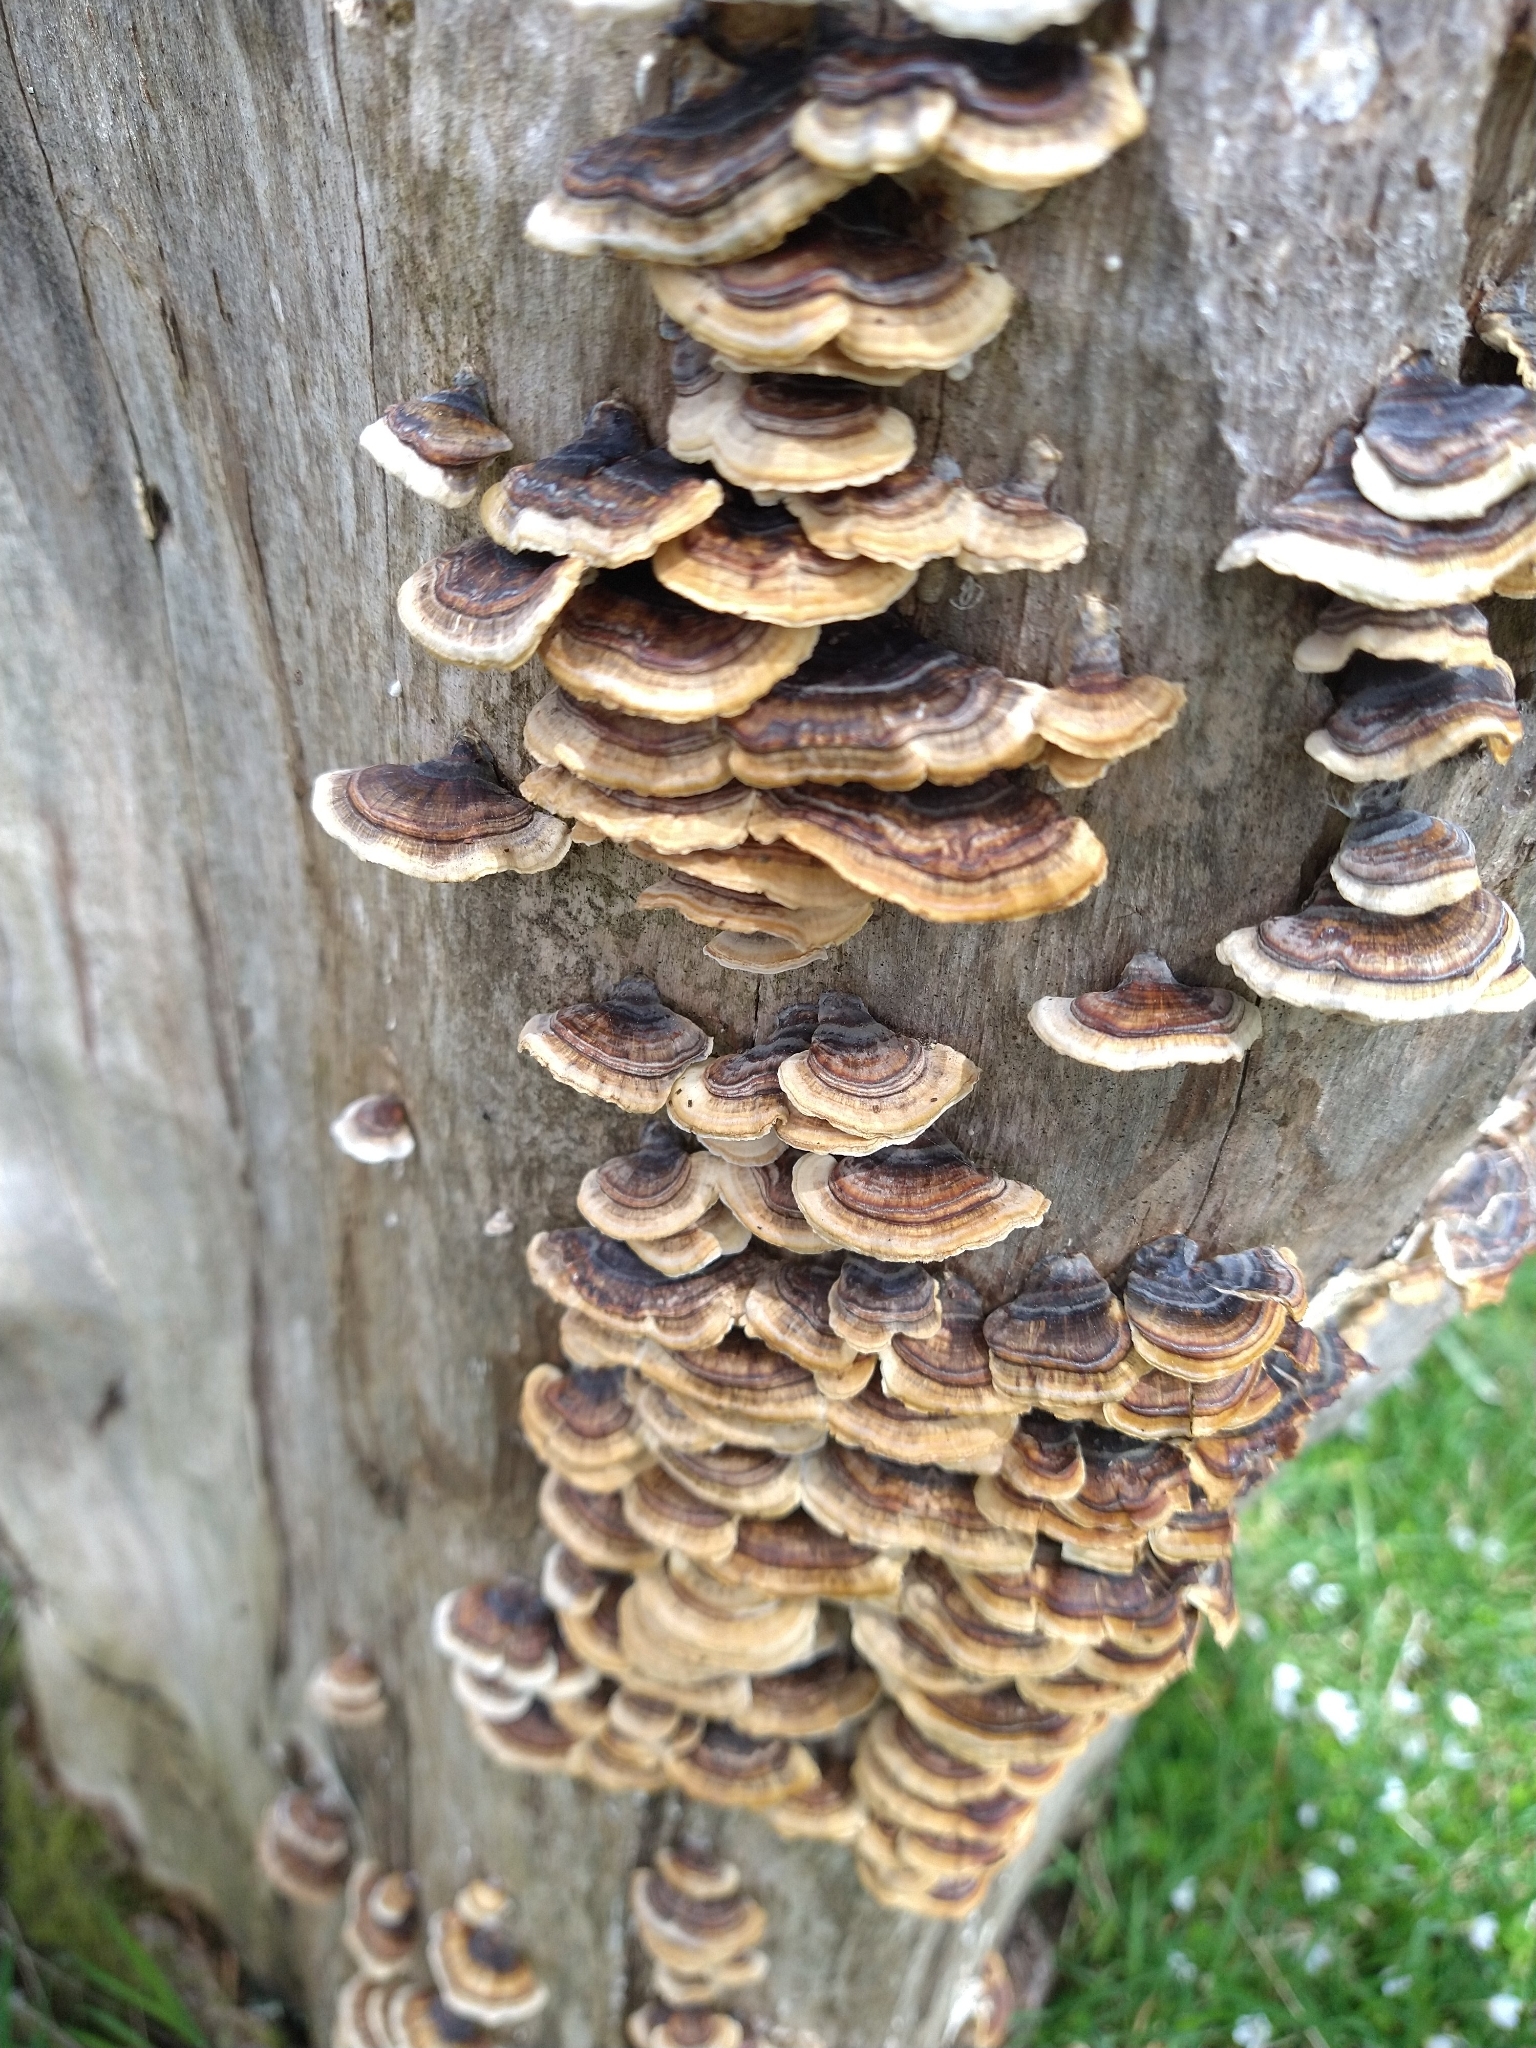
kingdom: Fungi
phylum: Basidiomycota
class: Agaricomycetes
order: Polyporales
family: Polyporaceae
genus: Trametes
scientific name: Trametes versicolor
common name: Turkeytail
